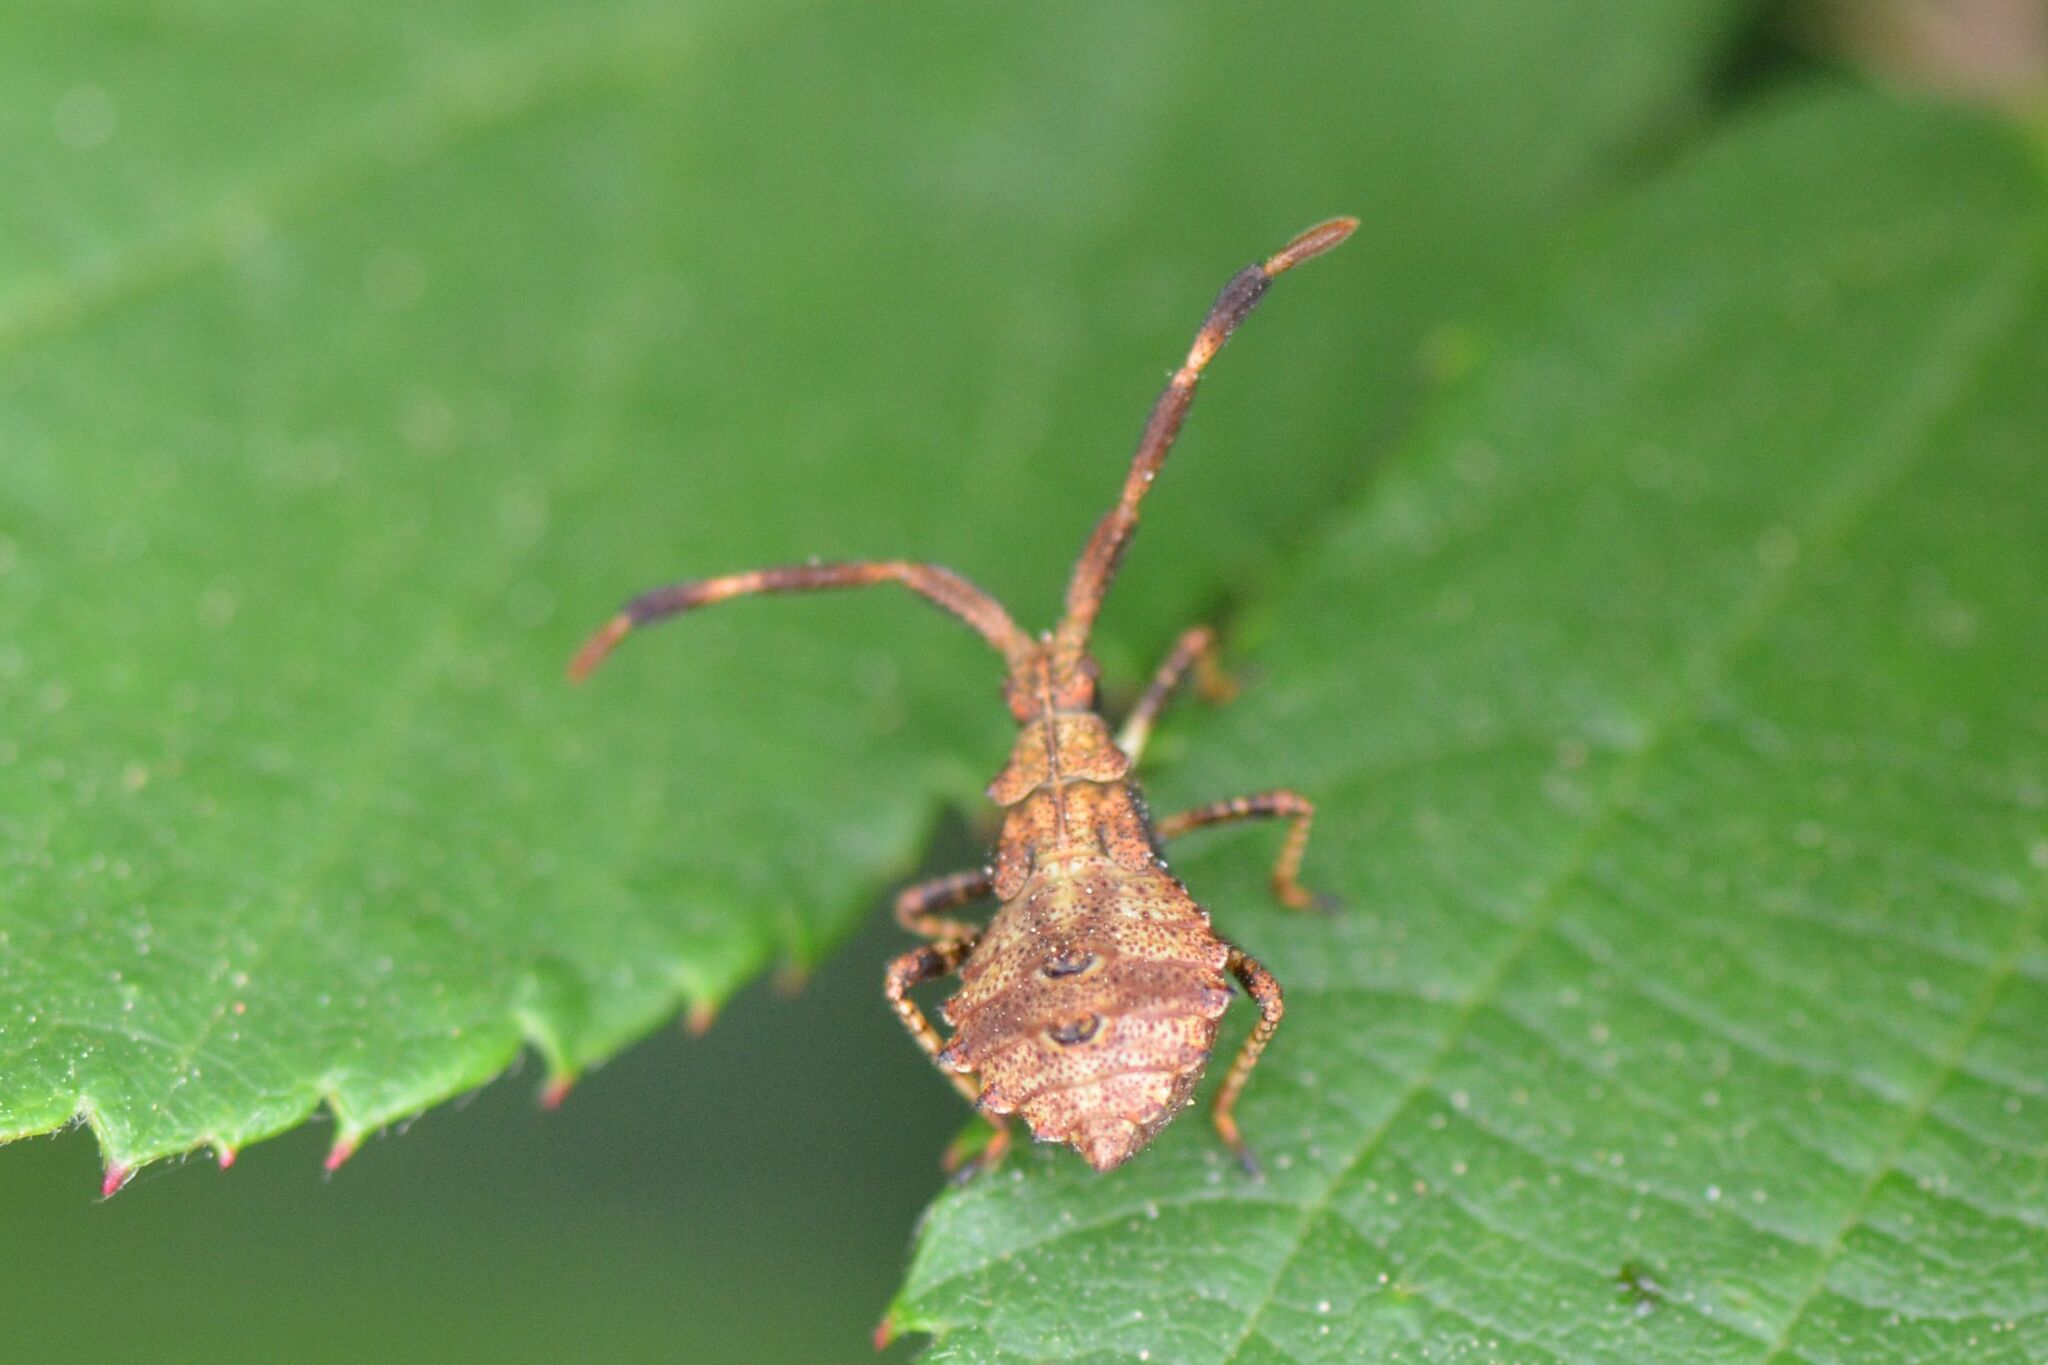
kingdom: Animalia
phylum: Arthropoda
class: Insecta
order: Hemiptera
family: Coreidae
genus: Coreus
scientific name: Coreus marginatus
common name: Dock bug
